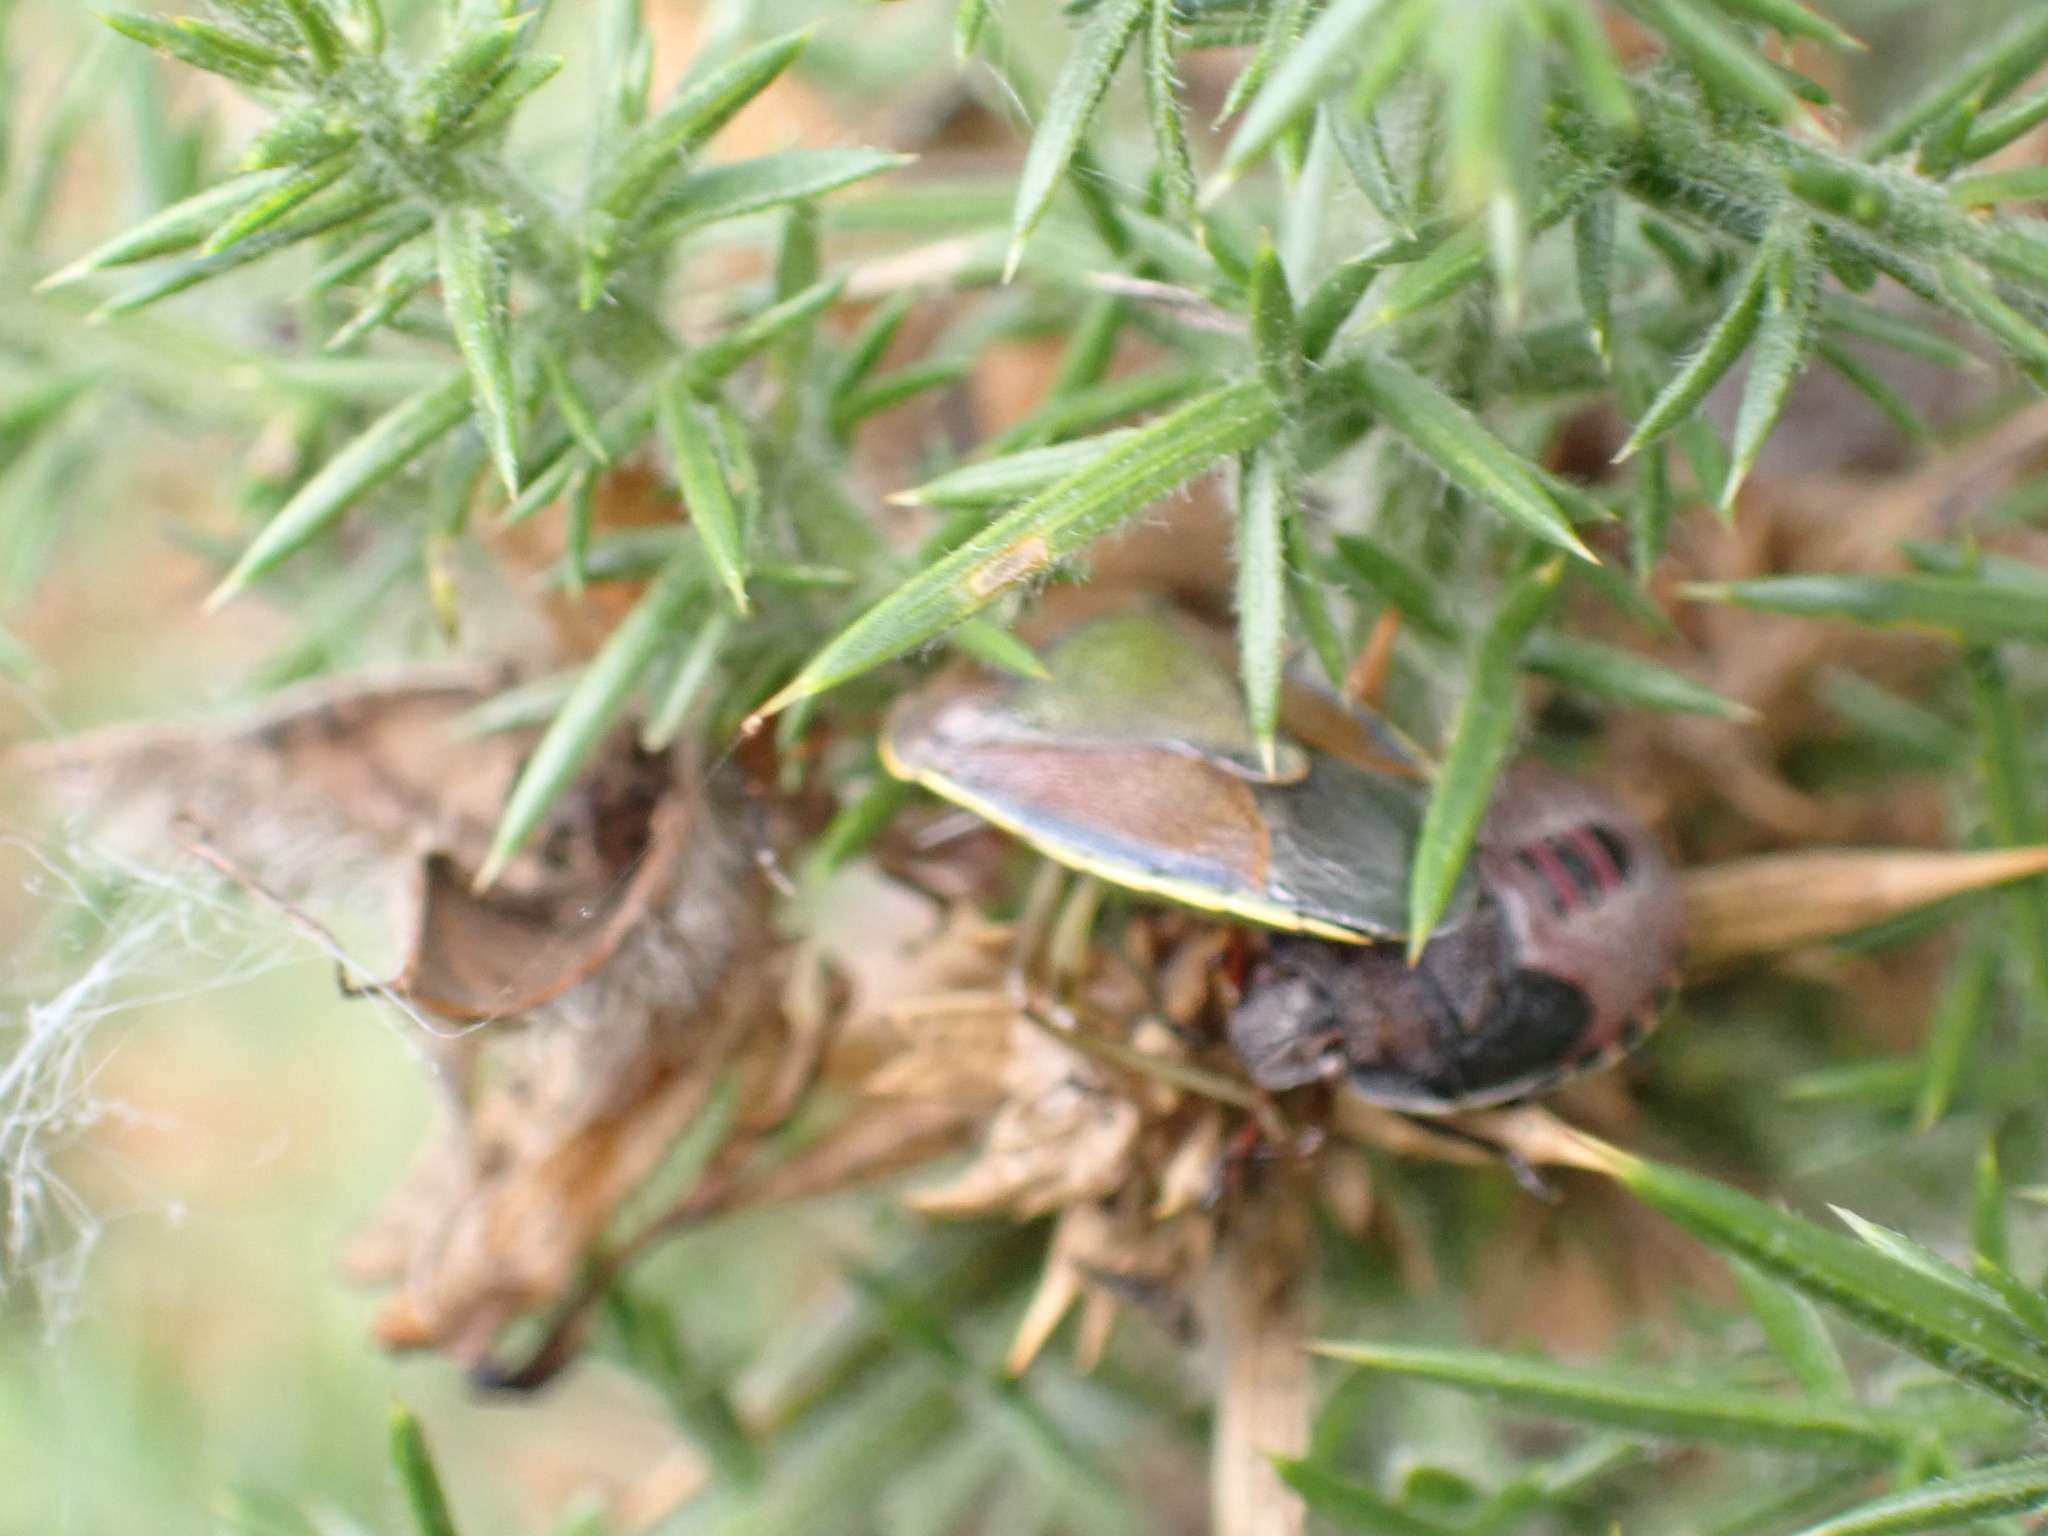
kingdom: Animalia
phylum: Arthropoda
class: Insecta
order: Hemiptera
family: Pentatomidae
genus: Piezodorus
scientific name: Piezodorus lituratus
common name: Stink bug
